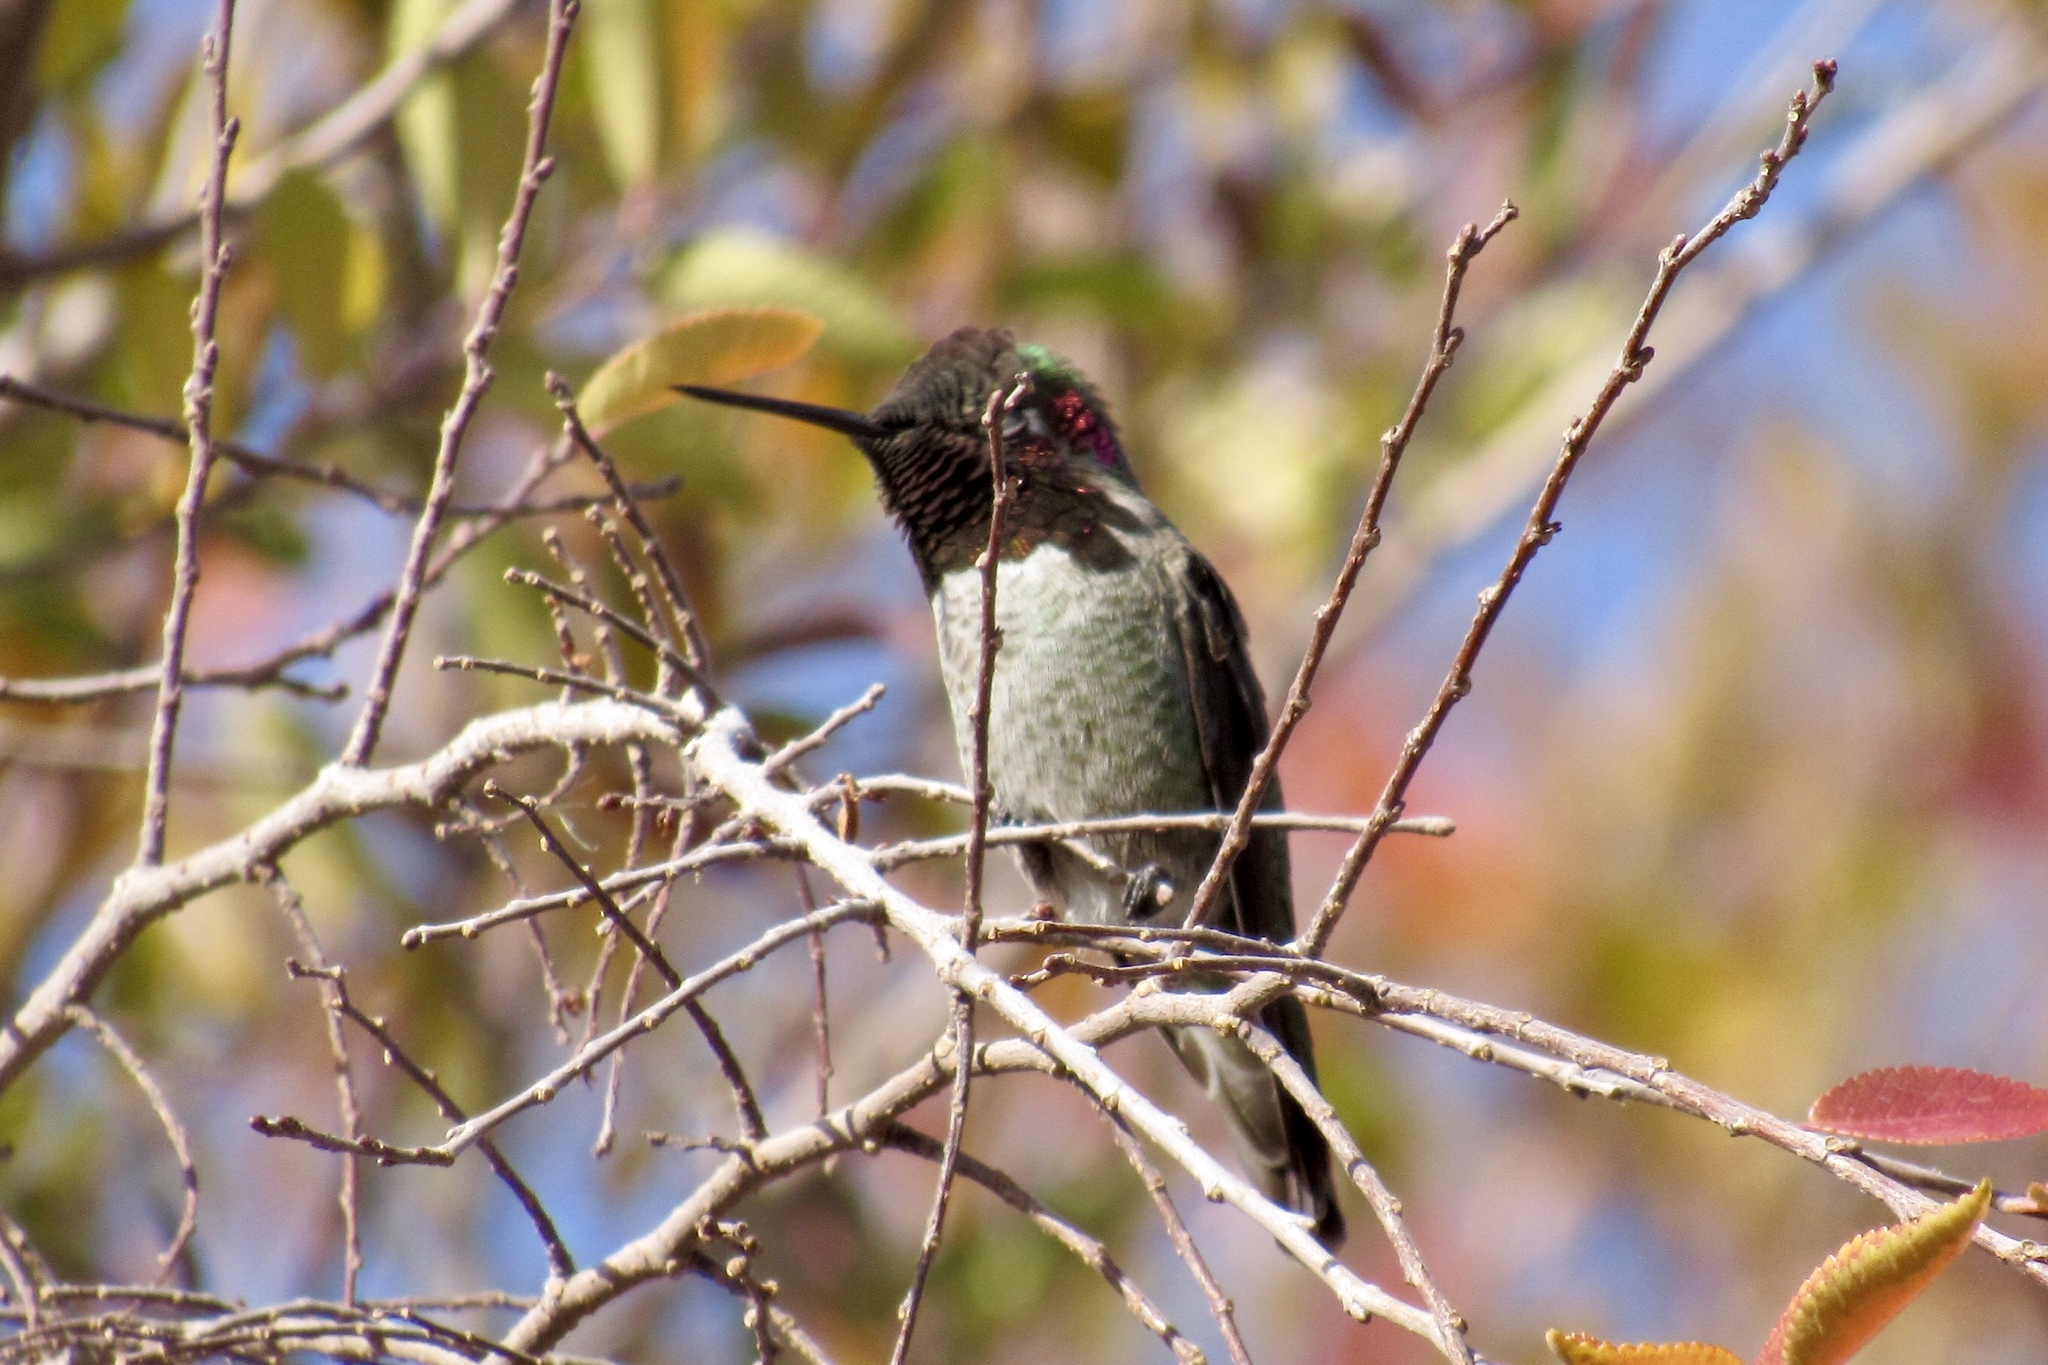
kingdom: Animalia
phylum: Chordata
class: Aves
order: Apodiformes
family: Trochilidae
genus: Calypte
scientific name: Calypte anna
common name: Anna's hummingbird
